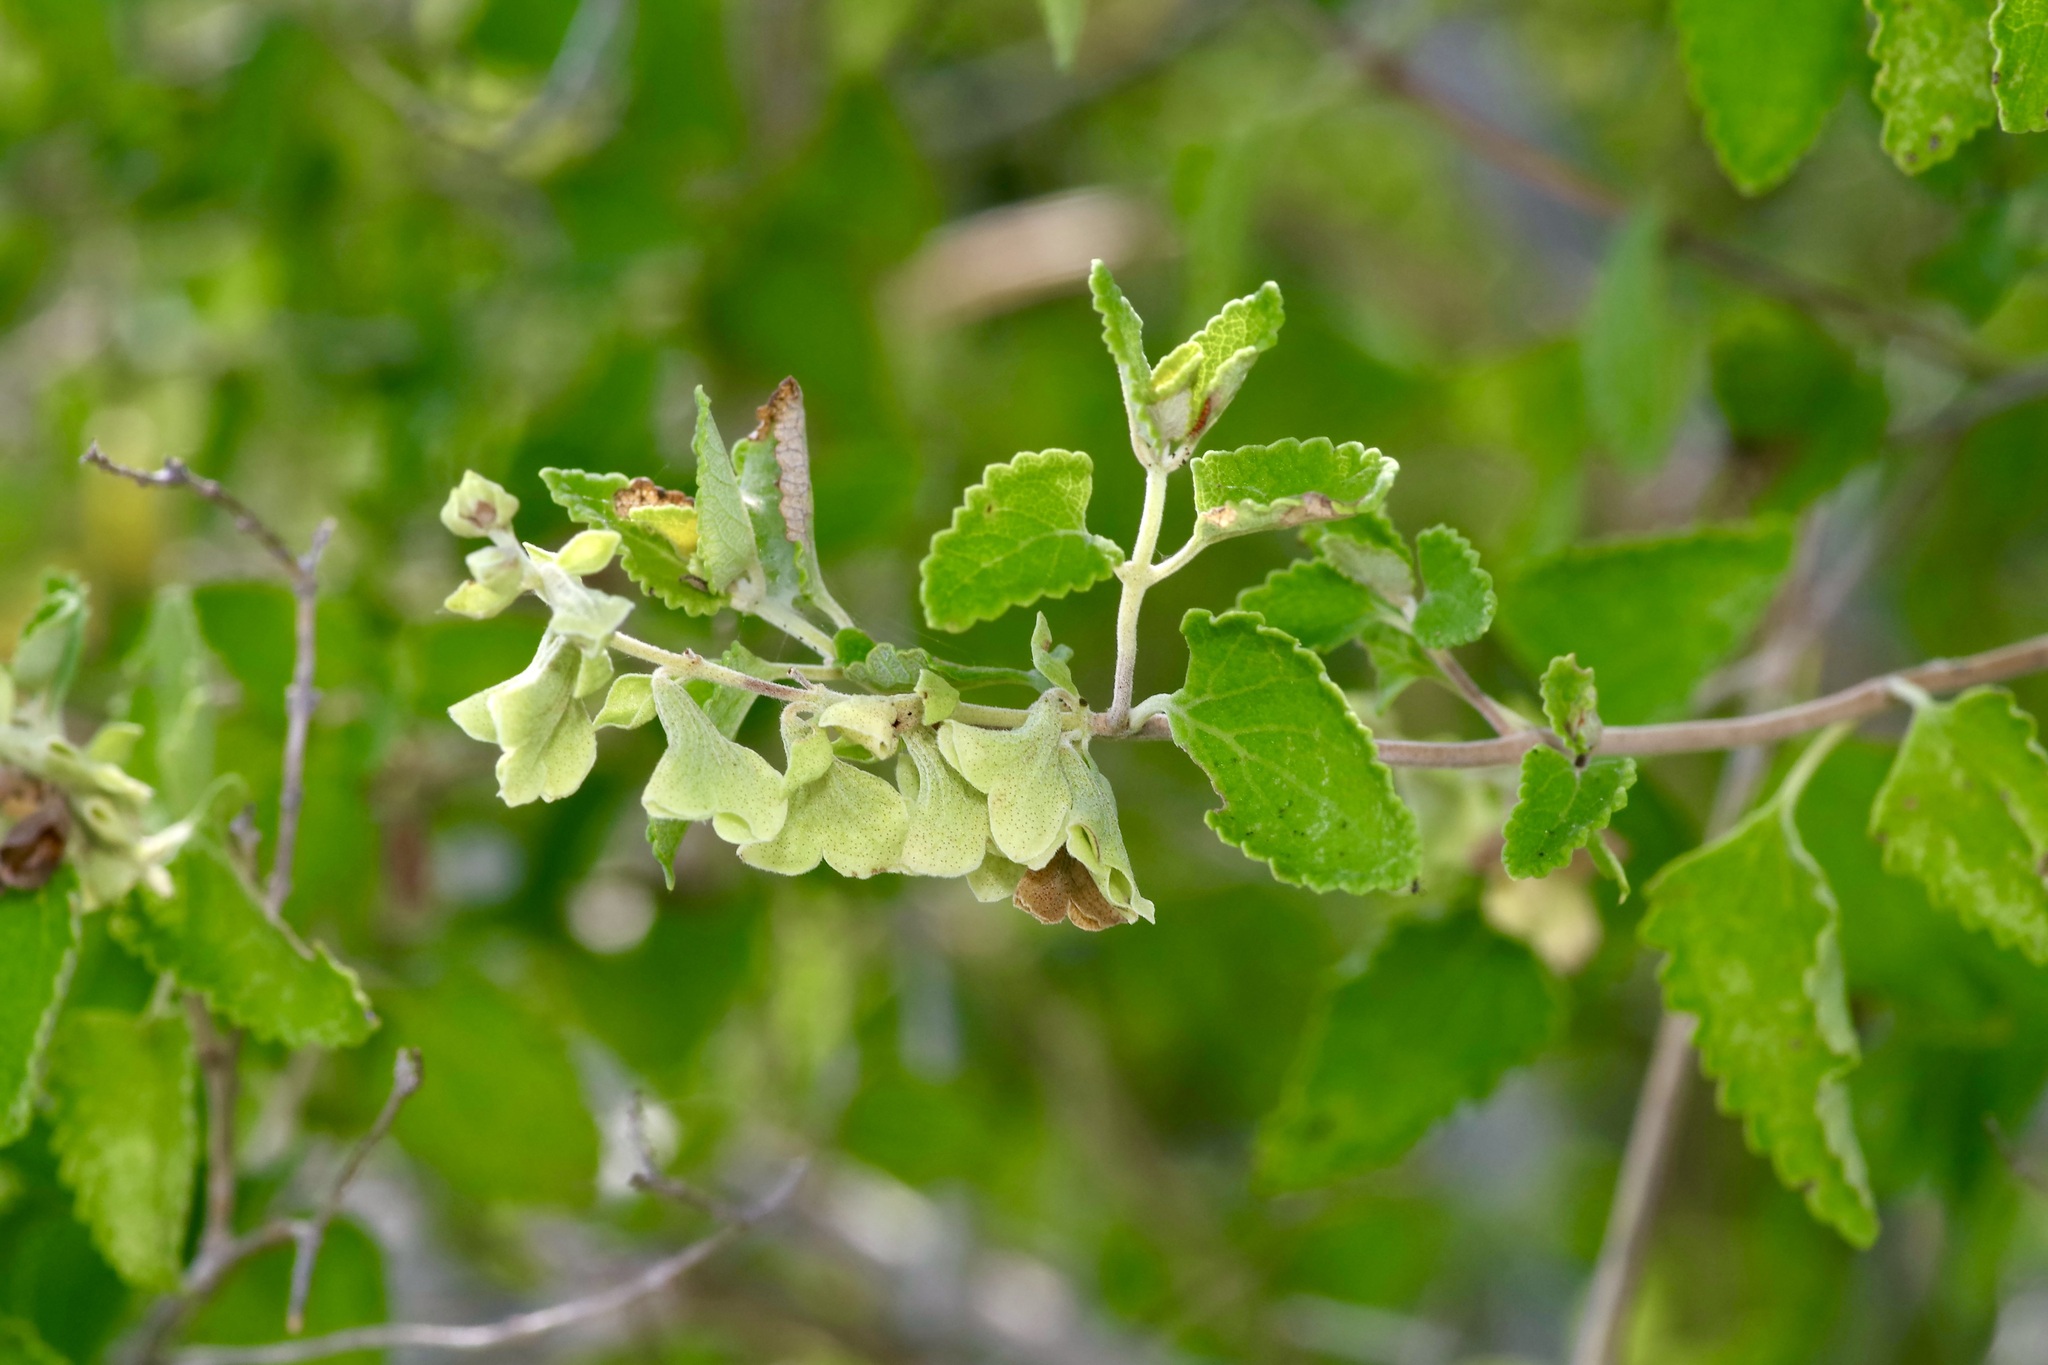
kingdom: Plantae
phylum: Tracheophyta
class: Magnoliopsida
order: Lamiales
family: Lamiaceae
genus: Salvia
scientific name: Salvia ballotiflora
